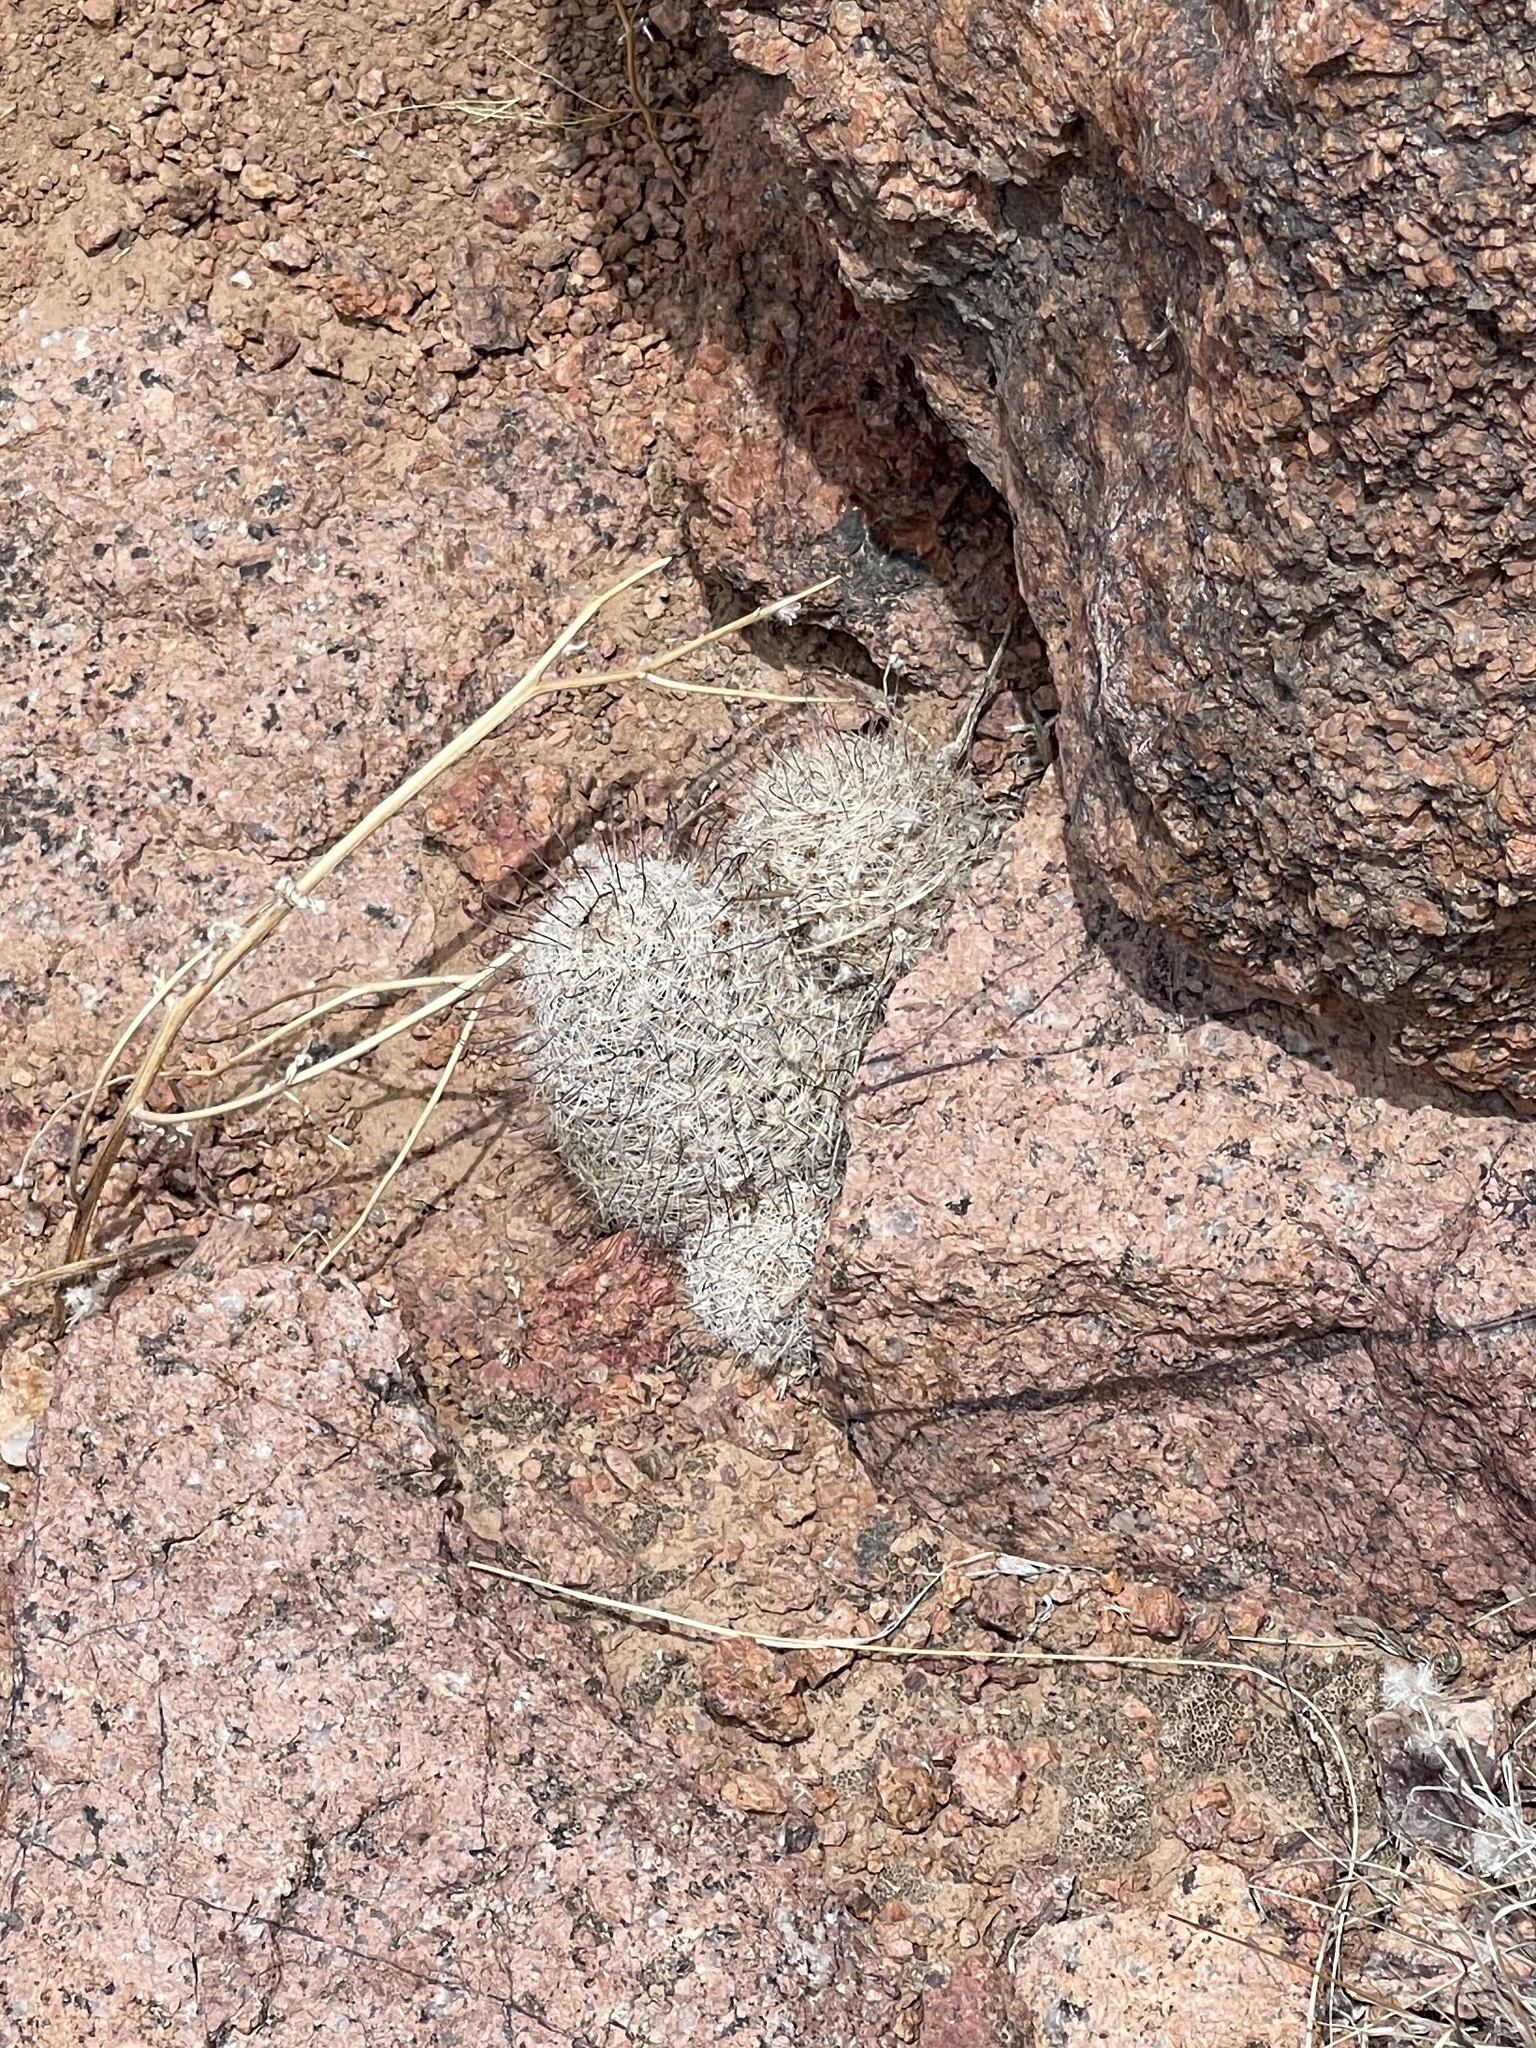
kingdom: Plantae
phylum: Tracheophyta
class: Magnoliopsida
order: Caryophyllales
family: Cactaceae
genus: Cochemiea
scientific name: Cochemiea grahamii
